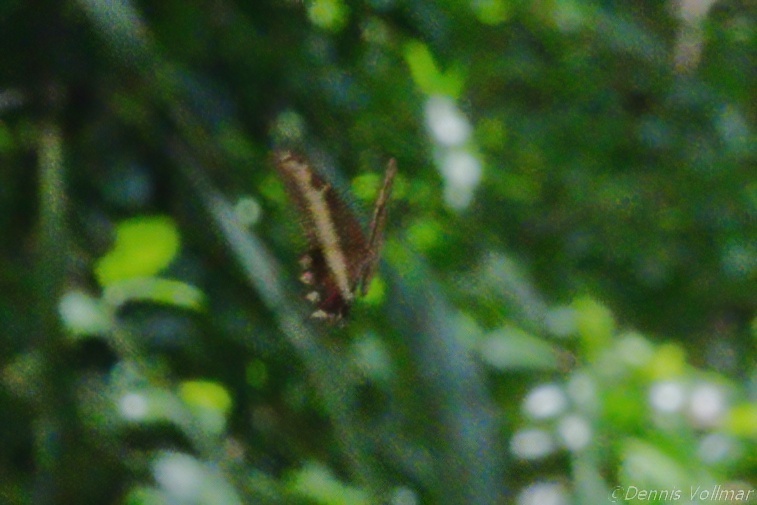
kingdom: Animalia
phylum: Arthropoda
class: Insecta
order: Lepidoptera
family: Papilionidae
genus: Papilio
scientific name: Papilio andraemon
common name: Bahaman swallowtail
